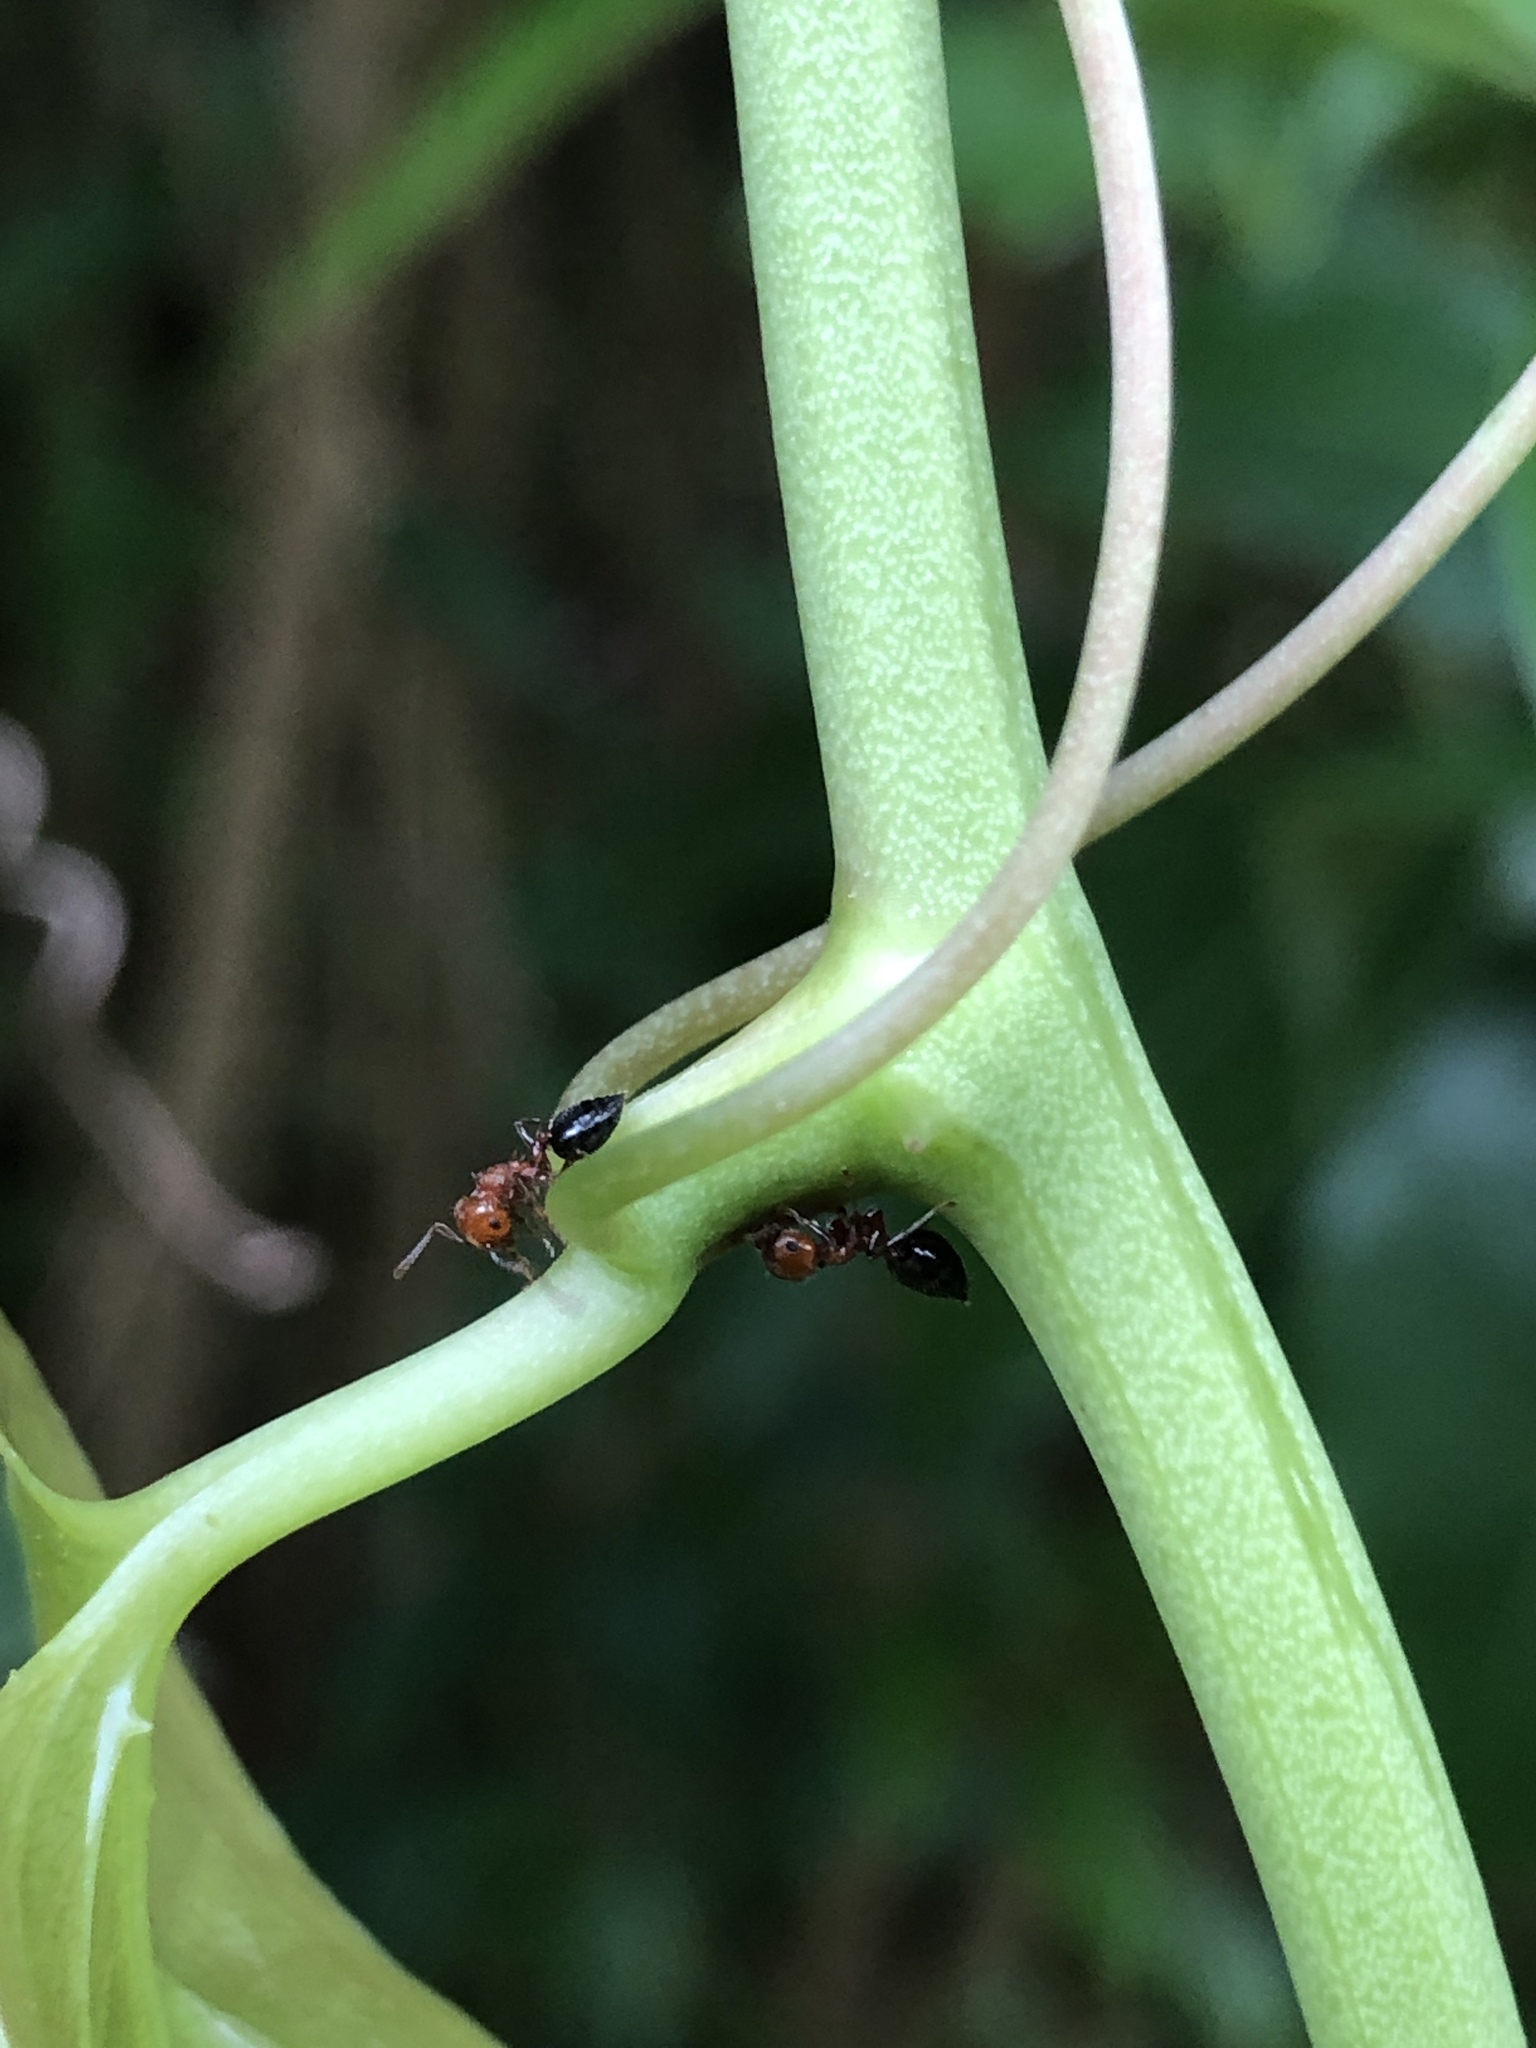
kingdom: Animalia
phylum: Arthropoda
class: Insecta
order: Hymenoptera
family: Formicidae
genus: Crematogaster
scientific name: Crematogaster laeviuscula
